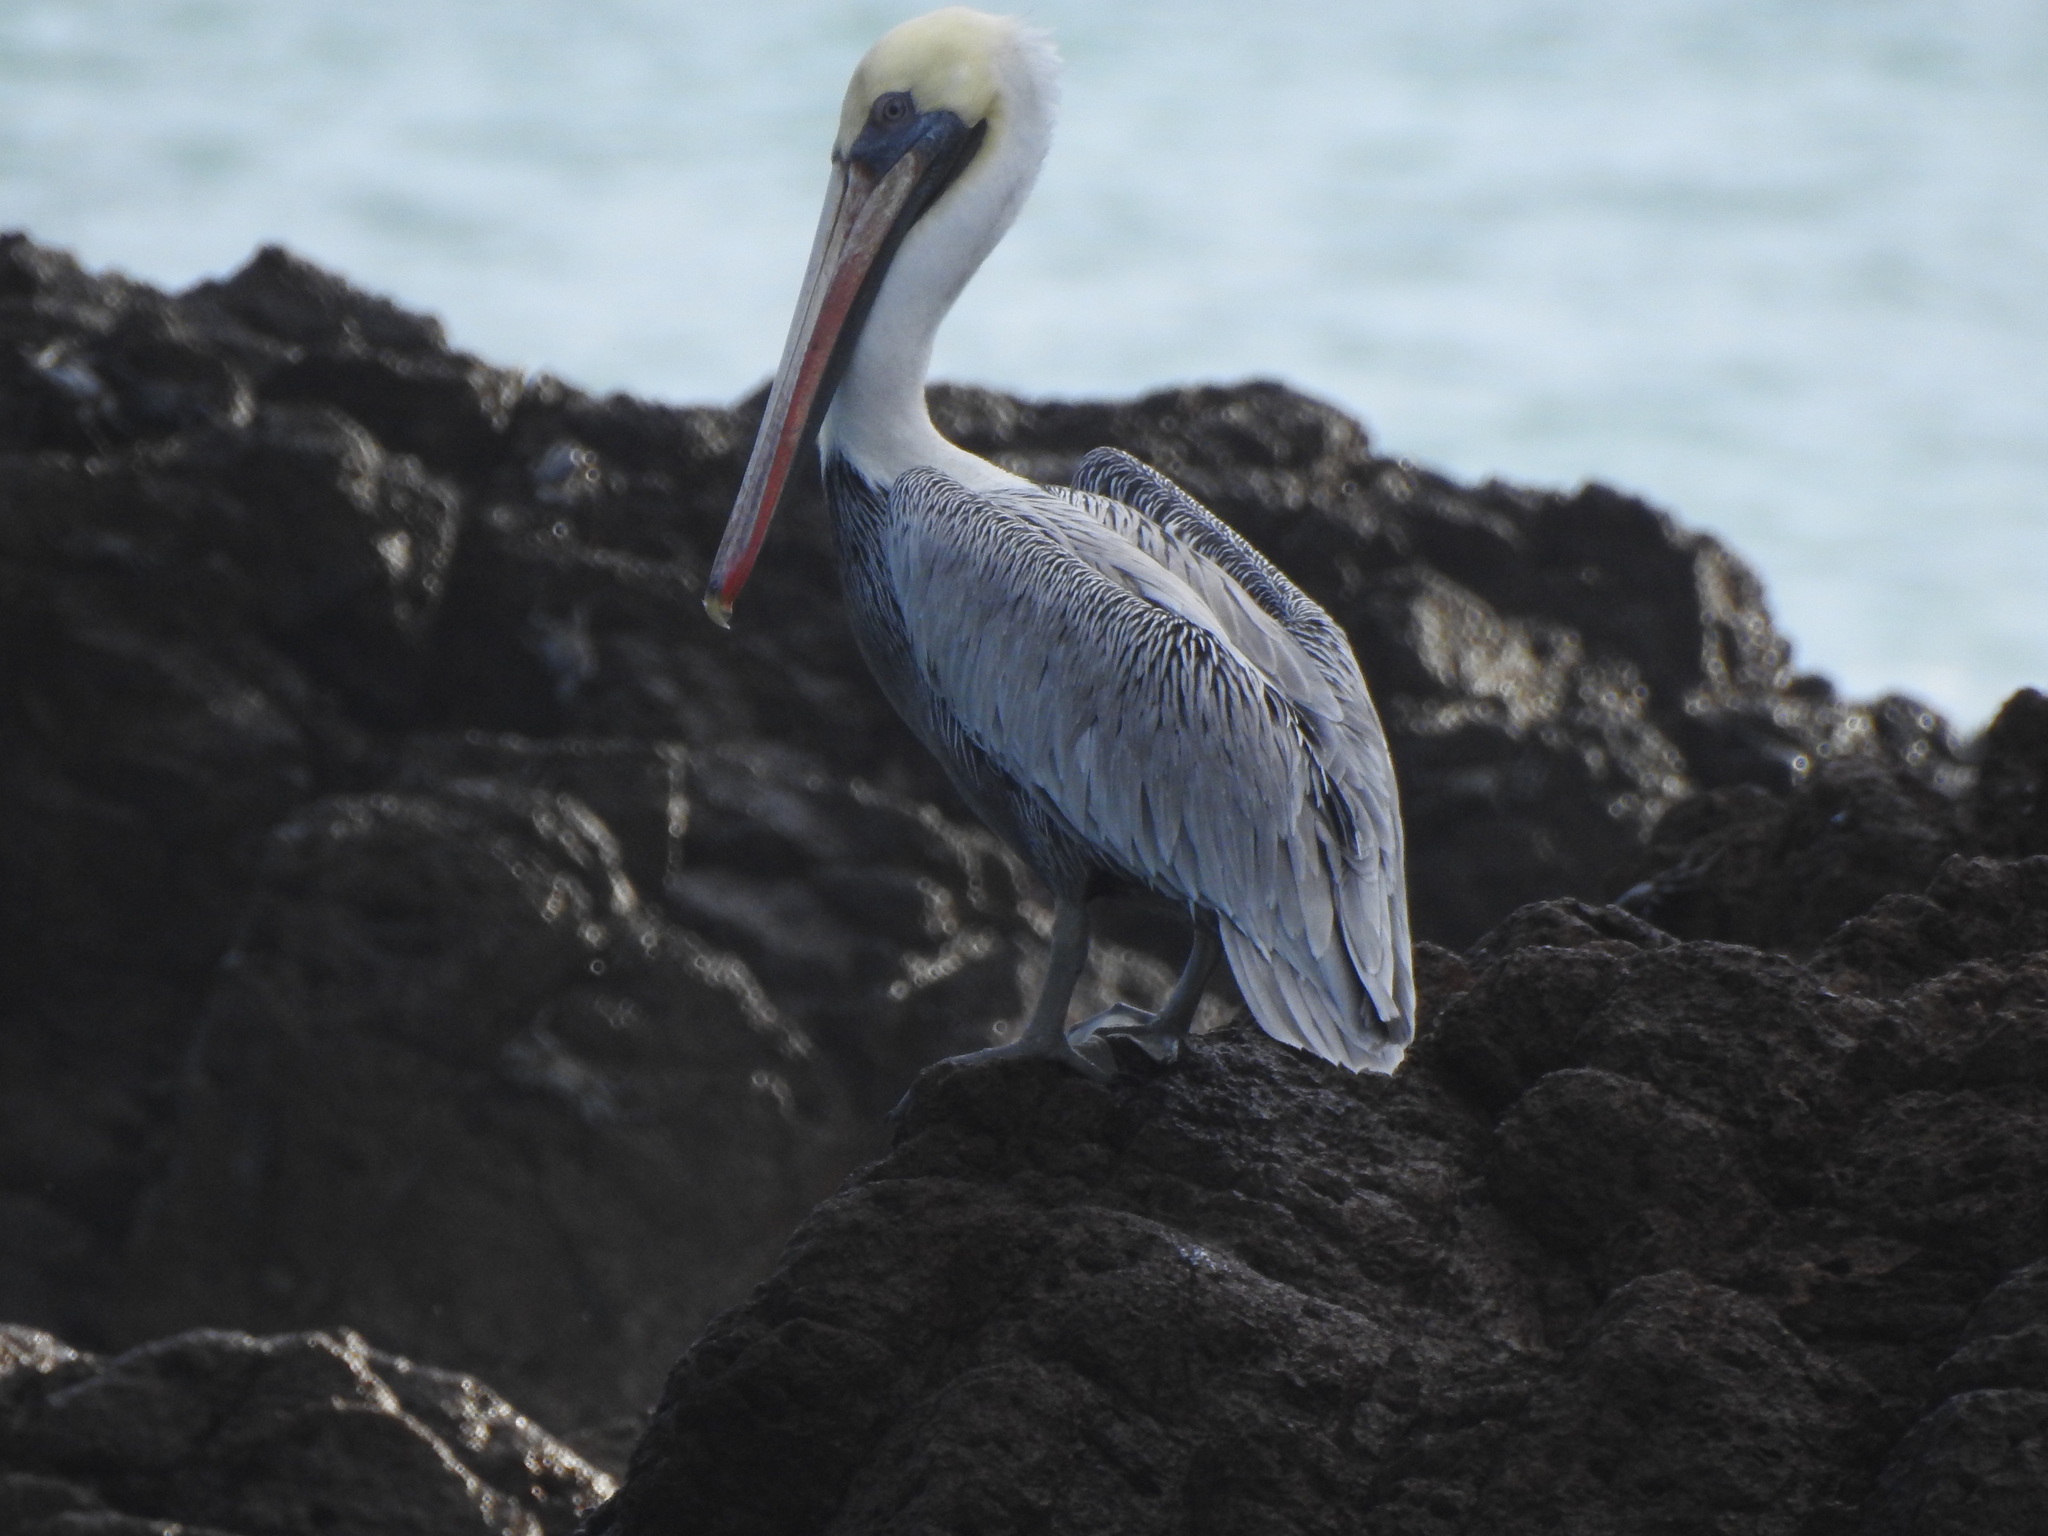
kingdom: Animalia
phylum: Chordata
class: Aves
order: Pelecaniformes
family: Pelecanidae
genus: Pelecanus
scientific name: Pelecanus occidentalis
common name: Brown pelican
